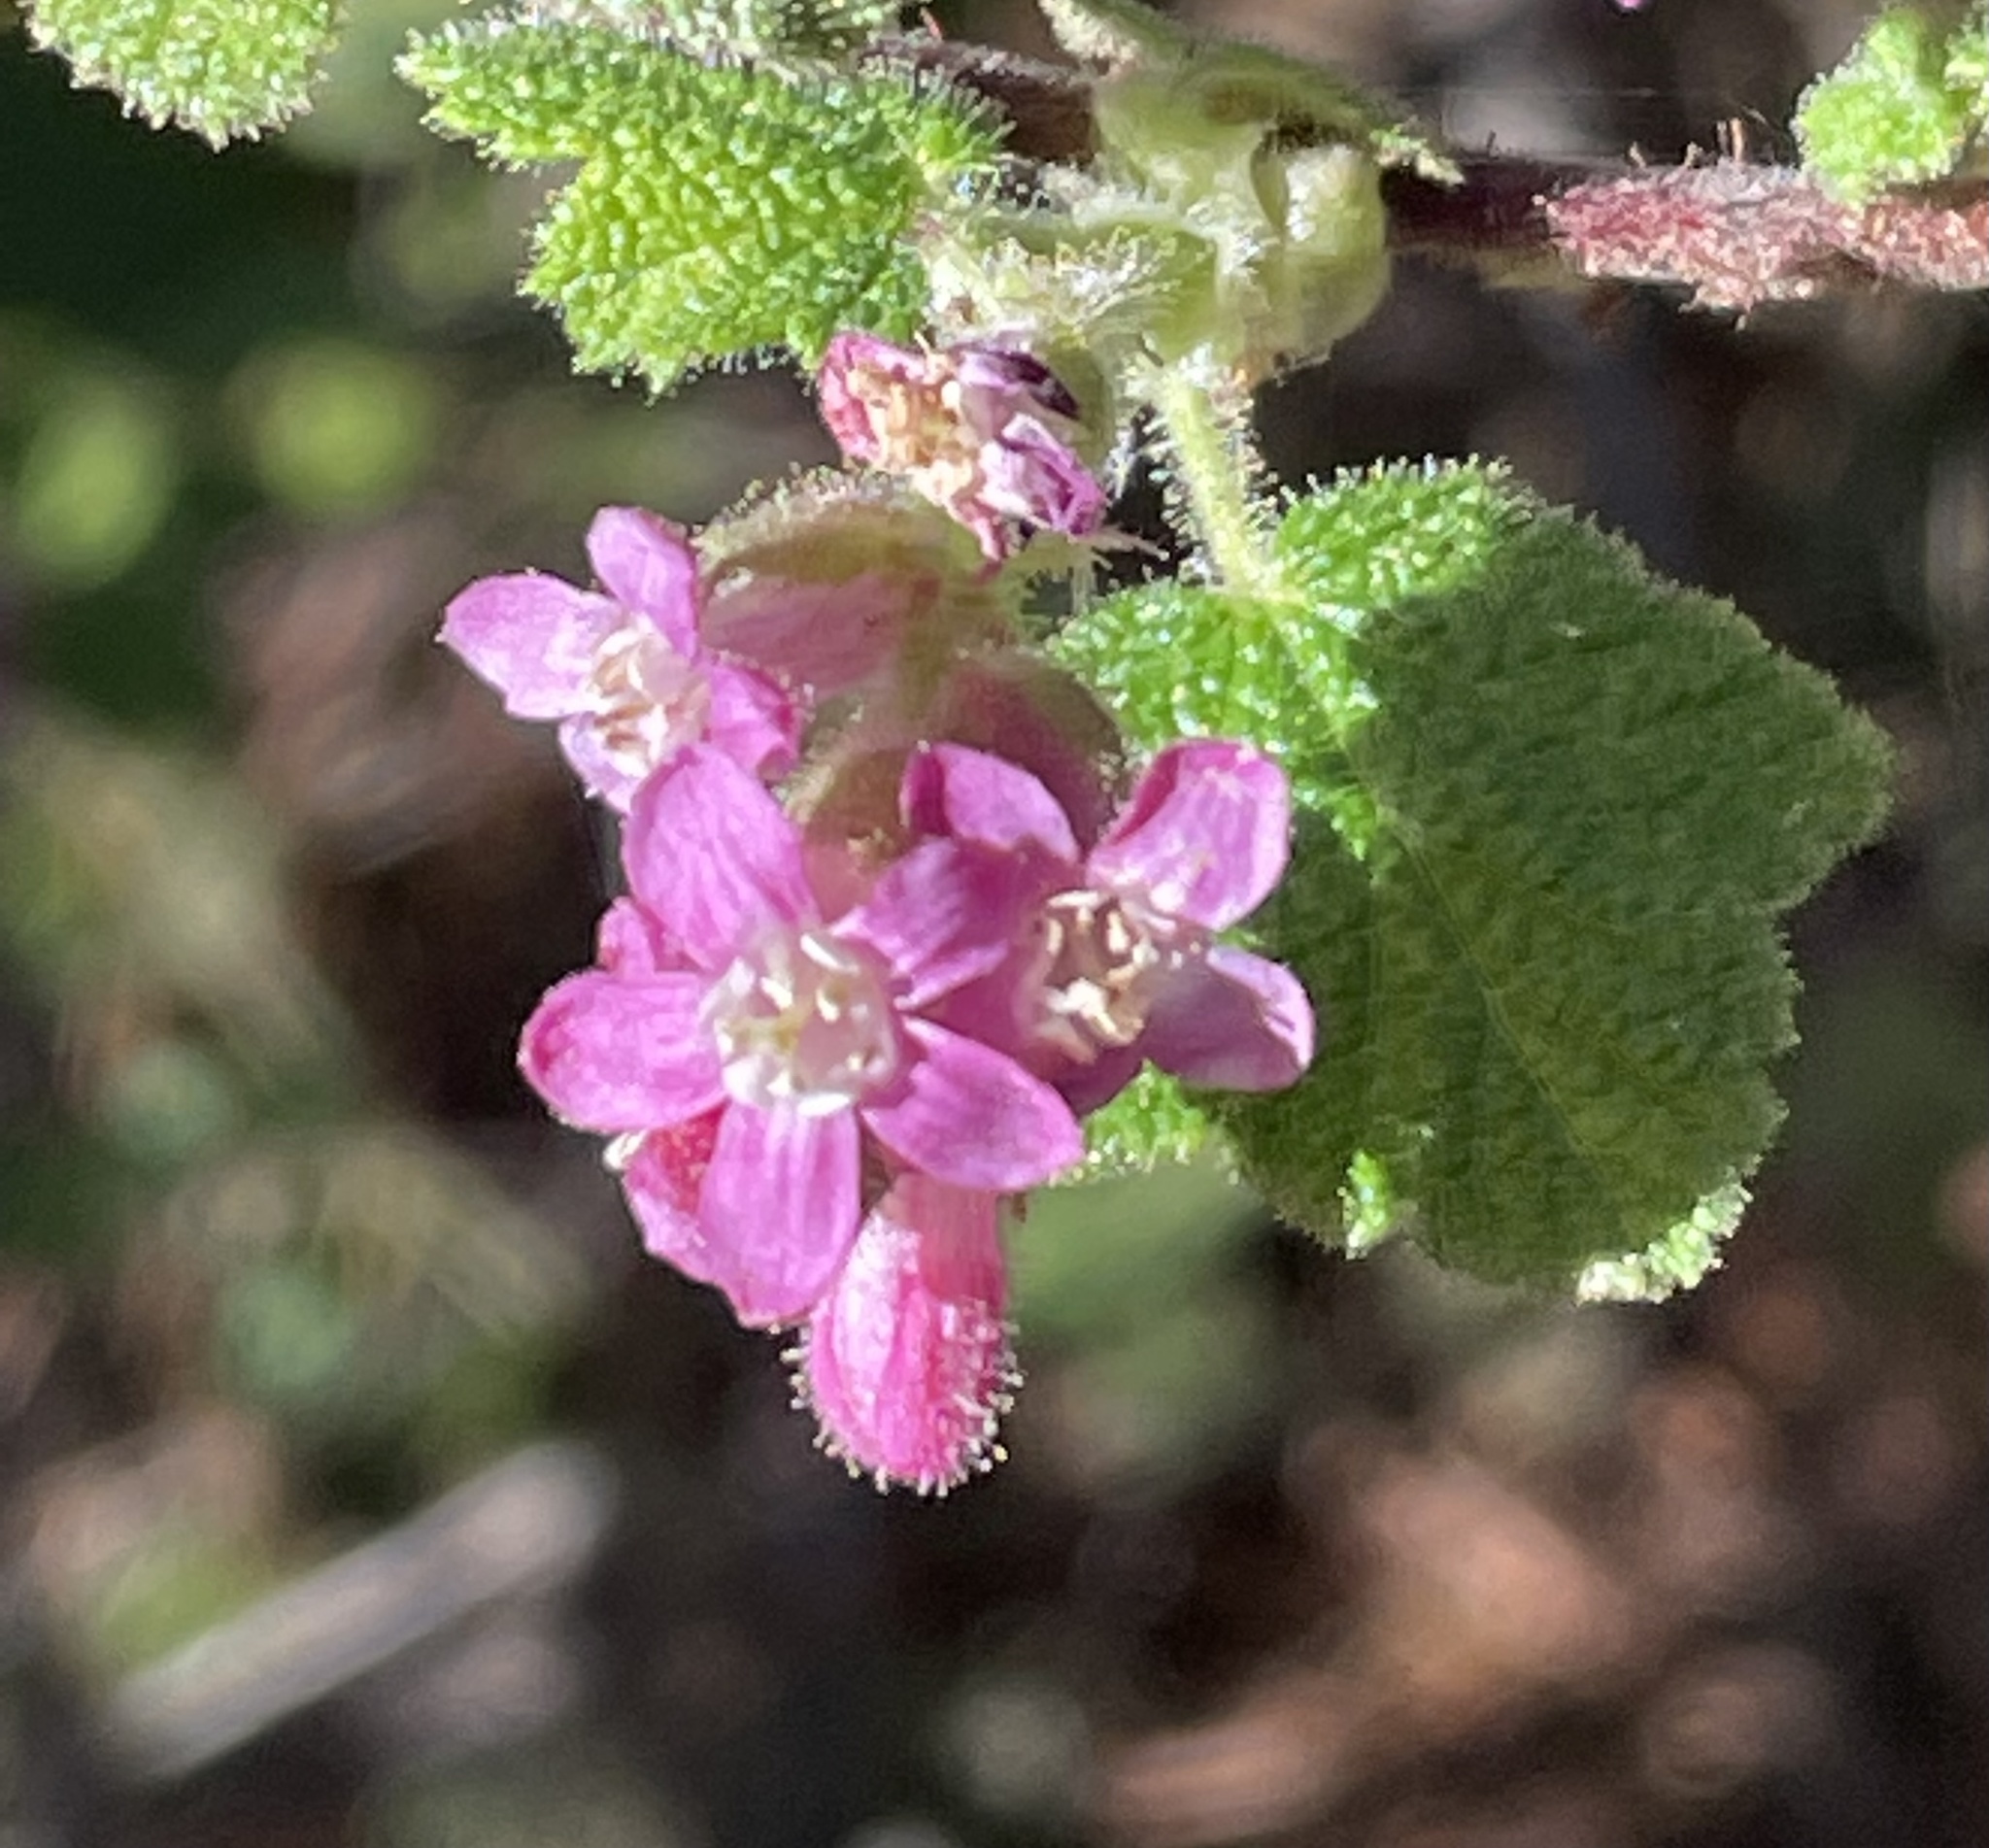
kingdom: Plantae
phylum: Tracheophyta
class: Magnoliopsida
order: Saxifragales
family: Grossulariaceae
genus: Ribes
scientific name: Ribes malvaceum
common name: Chaparral currant
